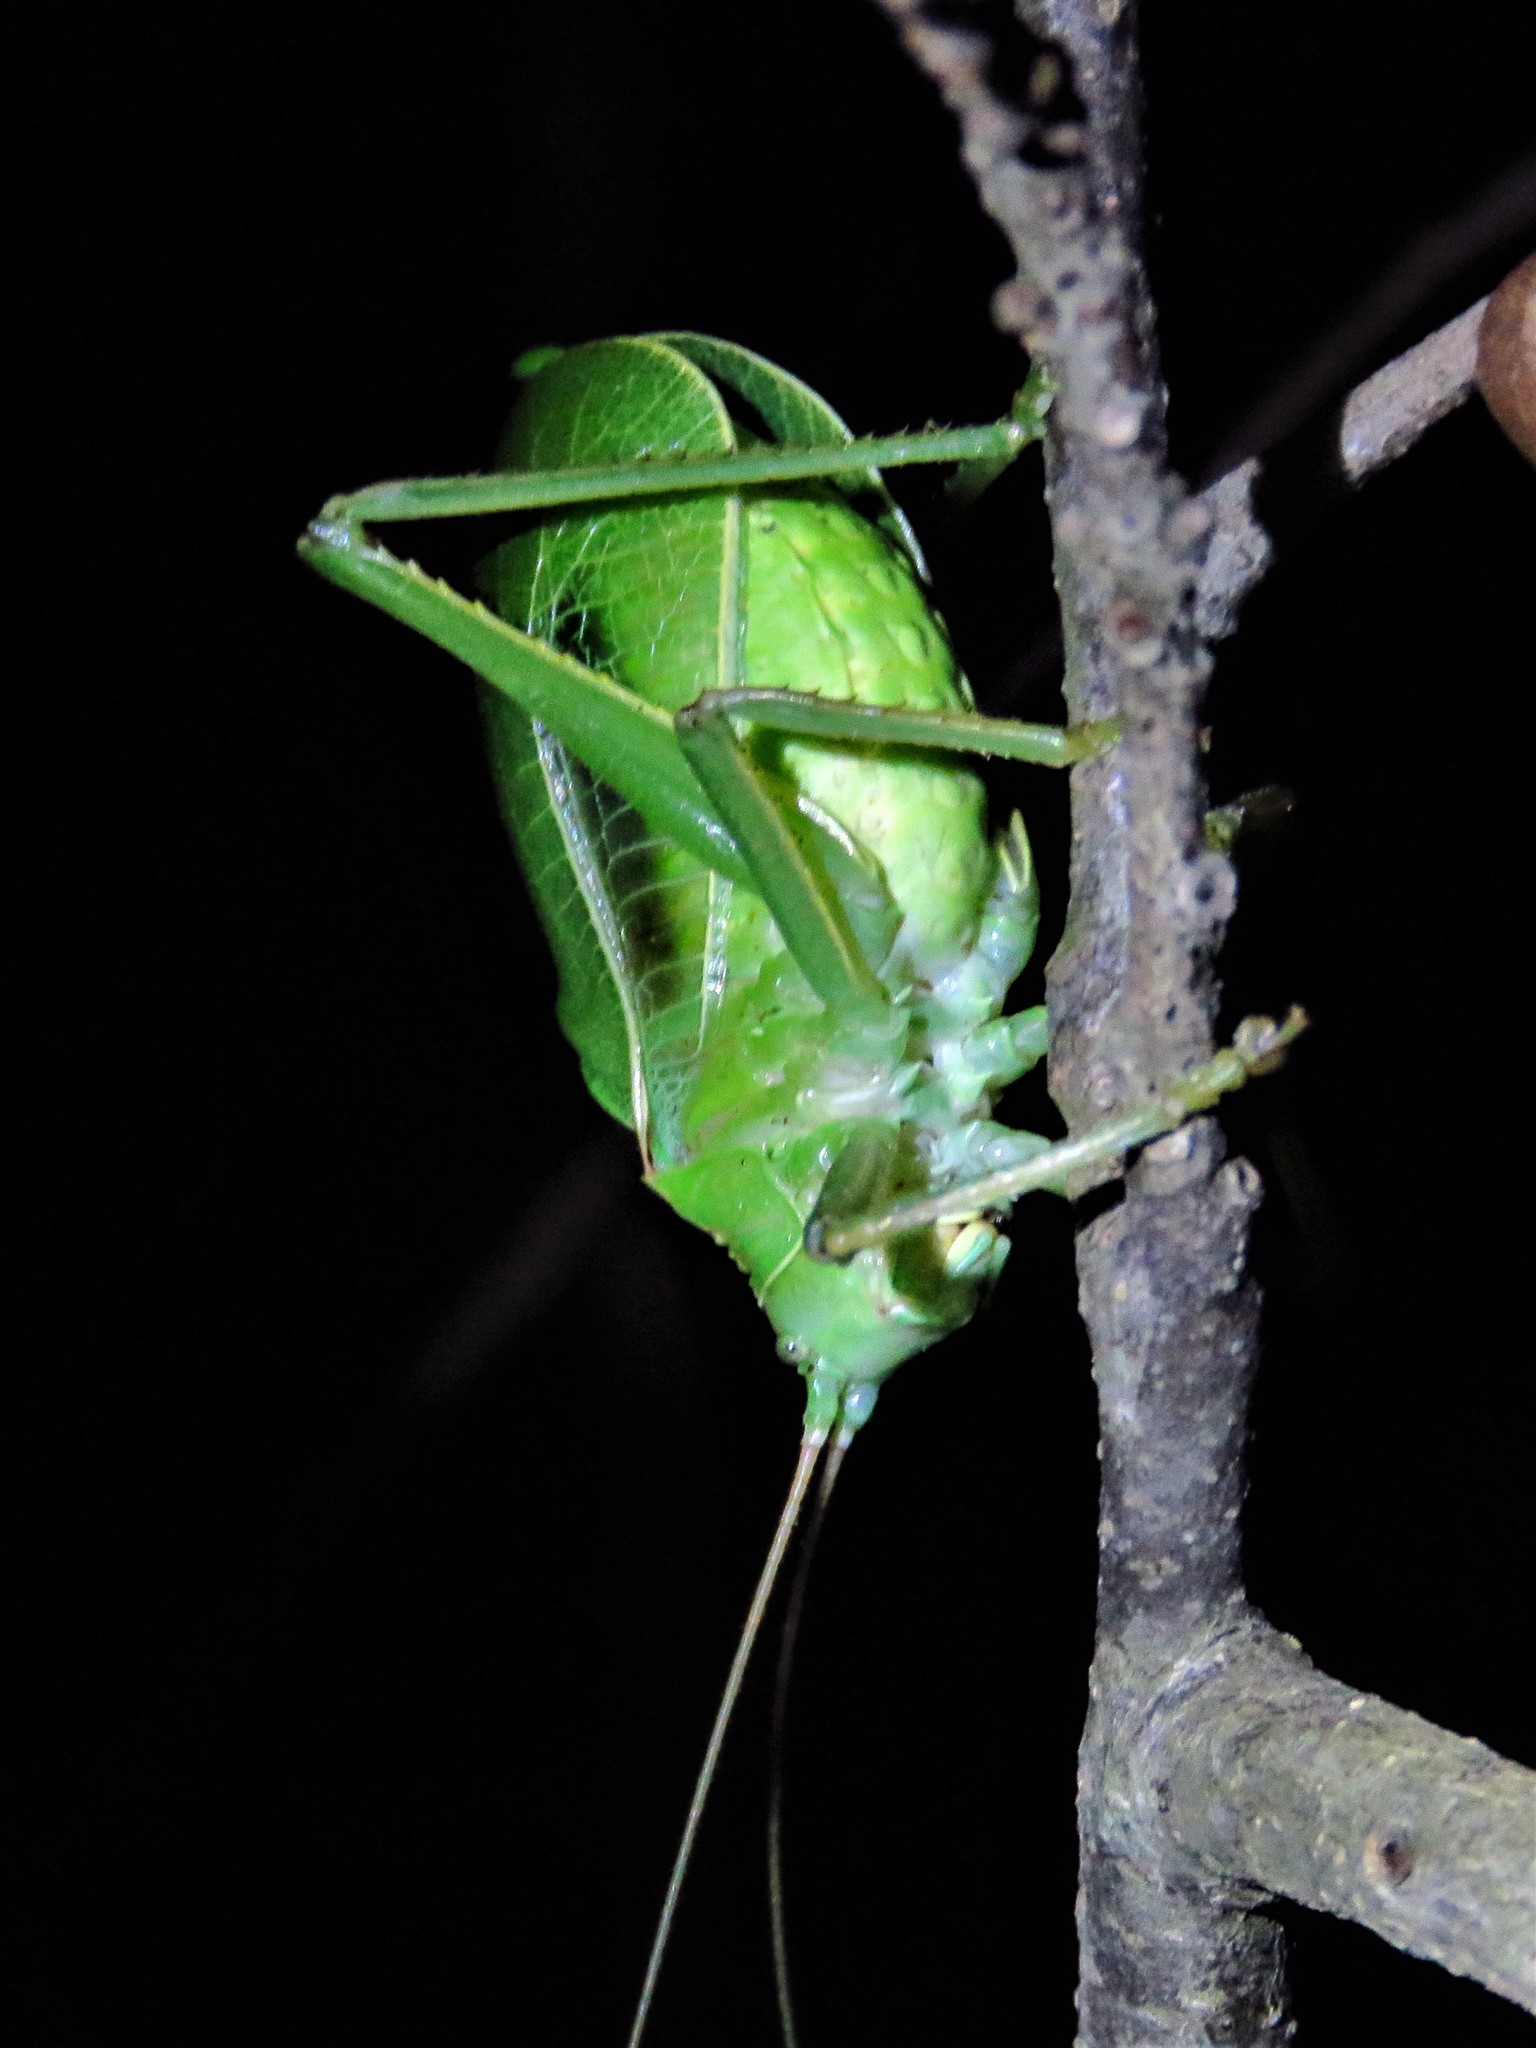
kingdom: Animalia
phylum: Arthropoda
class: Insecta
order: Orthoptera
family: Tettigoniidae
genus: Paracyrtophyllus
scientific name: Paracyrtophyllus robustus
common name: Central texas leaf katydid
